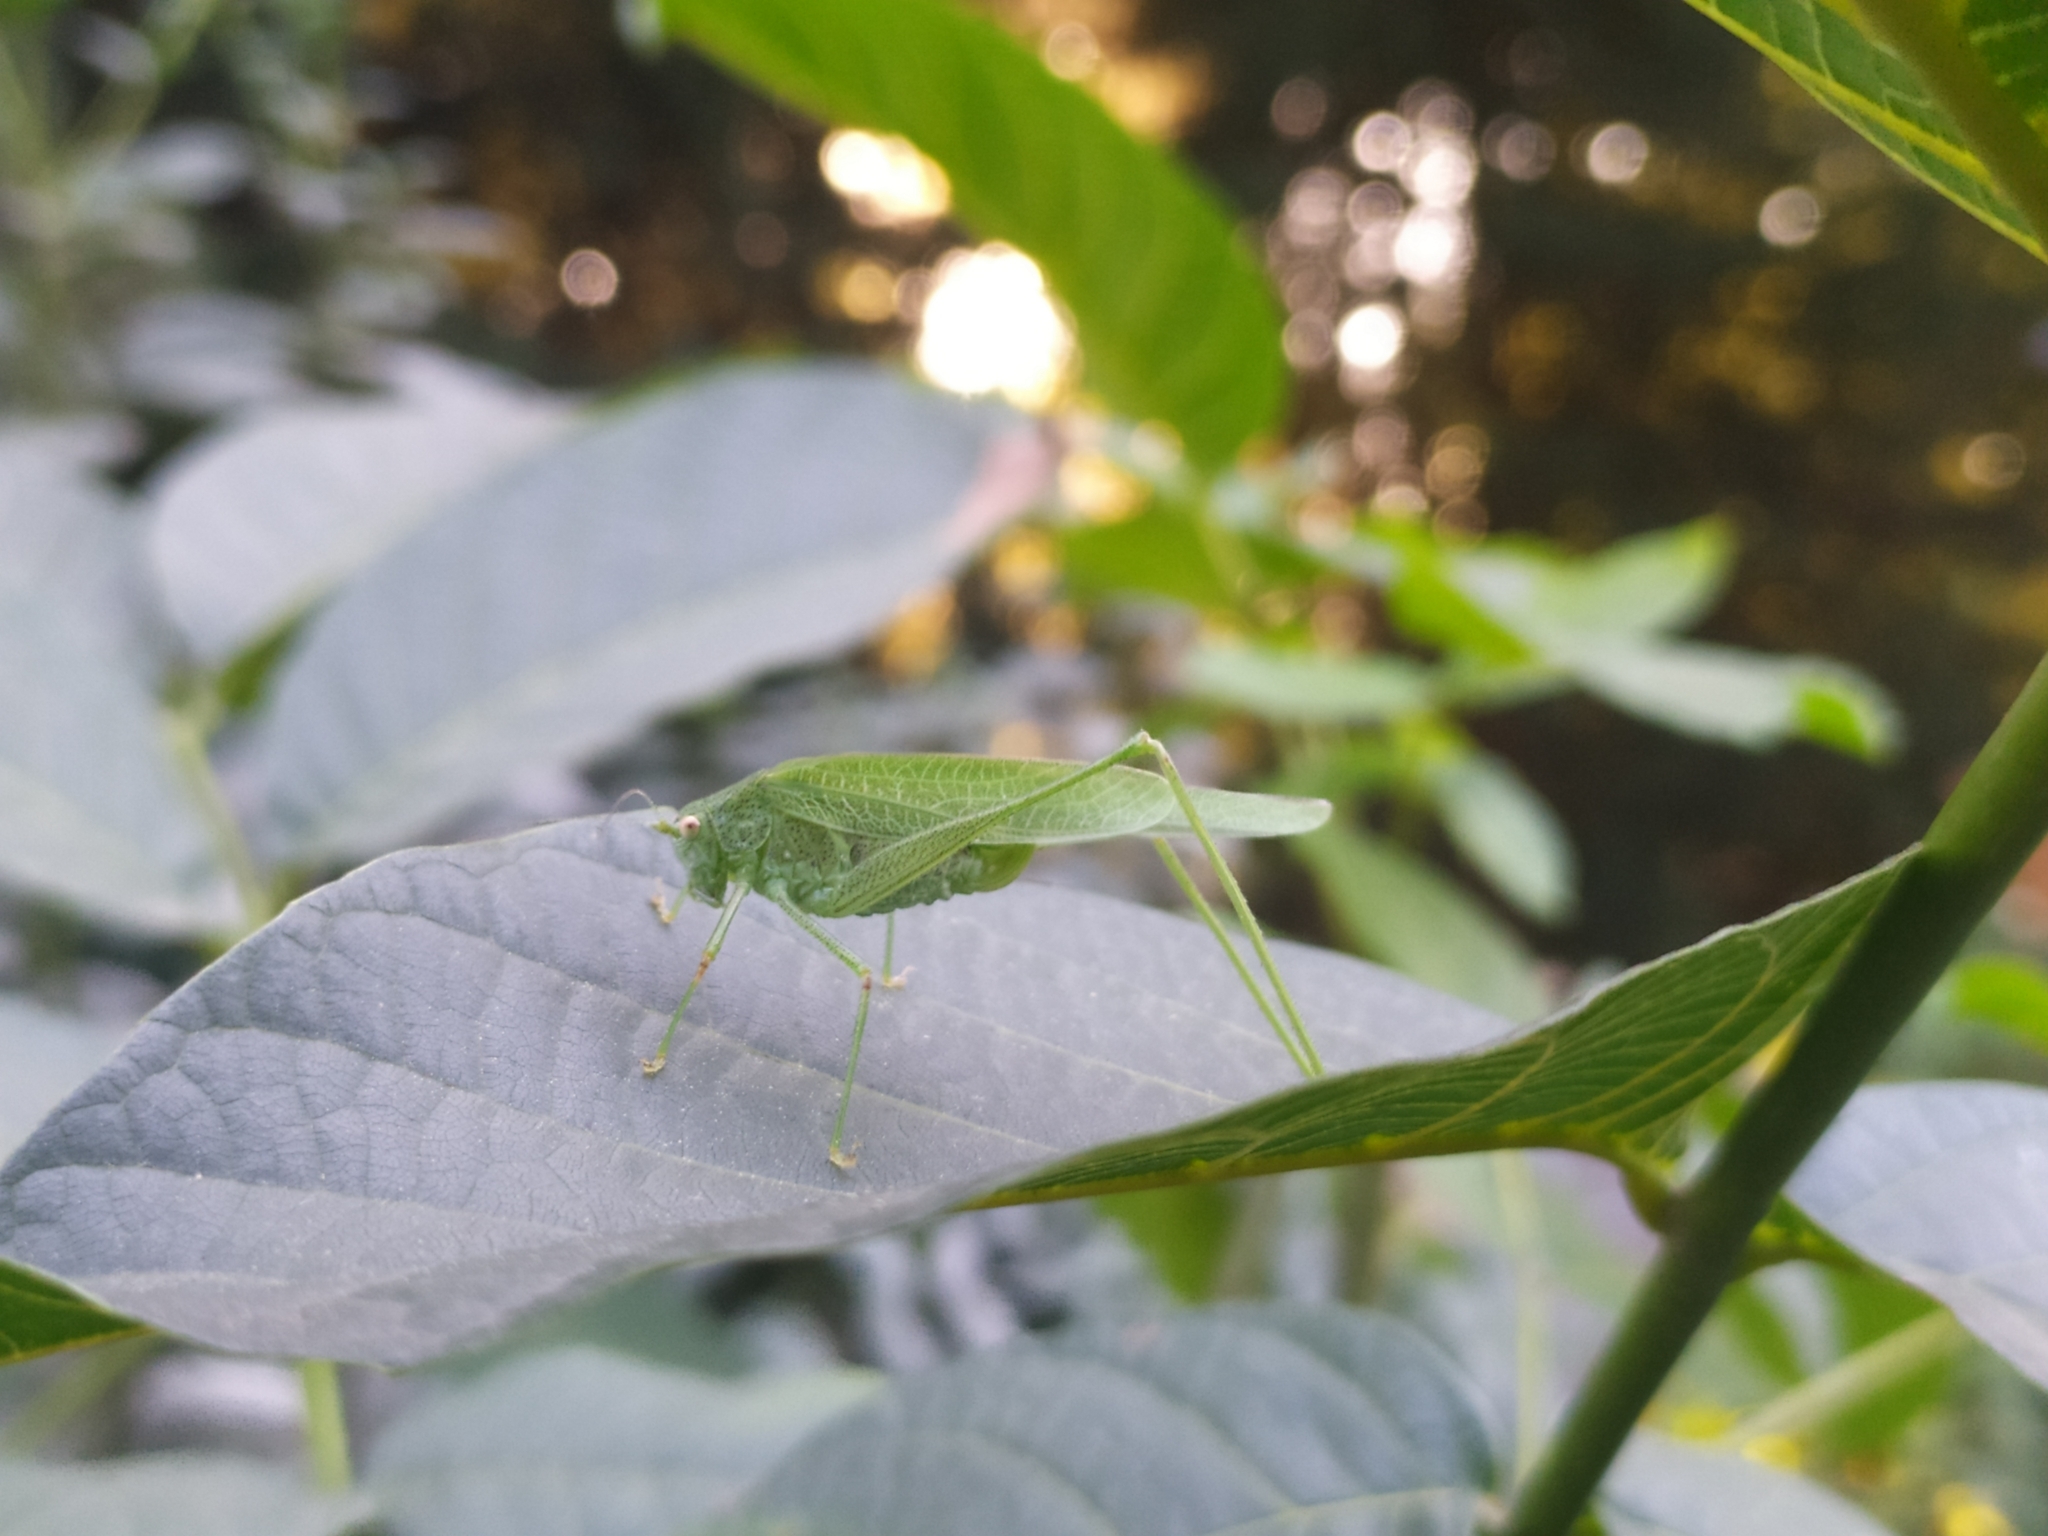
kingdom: Animalia
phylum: Arthropoda
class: Insecta
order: Orthoptera
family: Tettigoniidae
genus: Phaneroptera
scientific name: Phaneroptera nana
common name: Southern sickle bush-cricket
